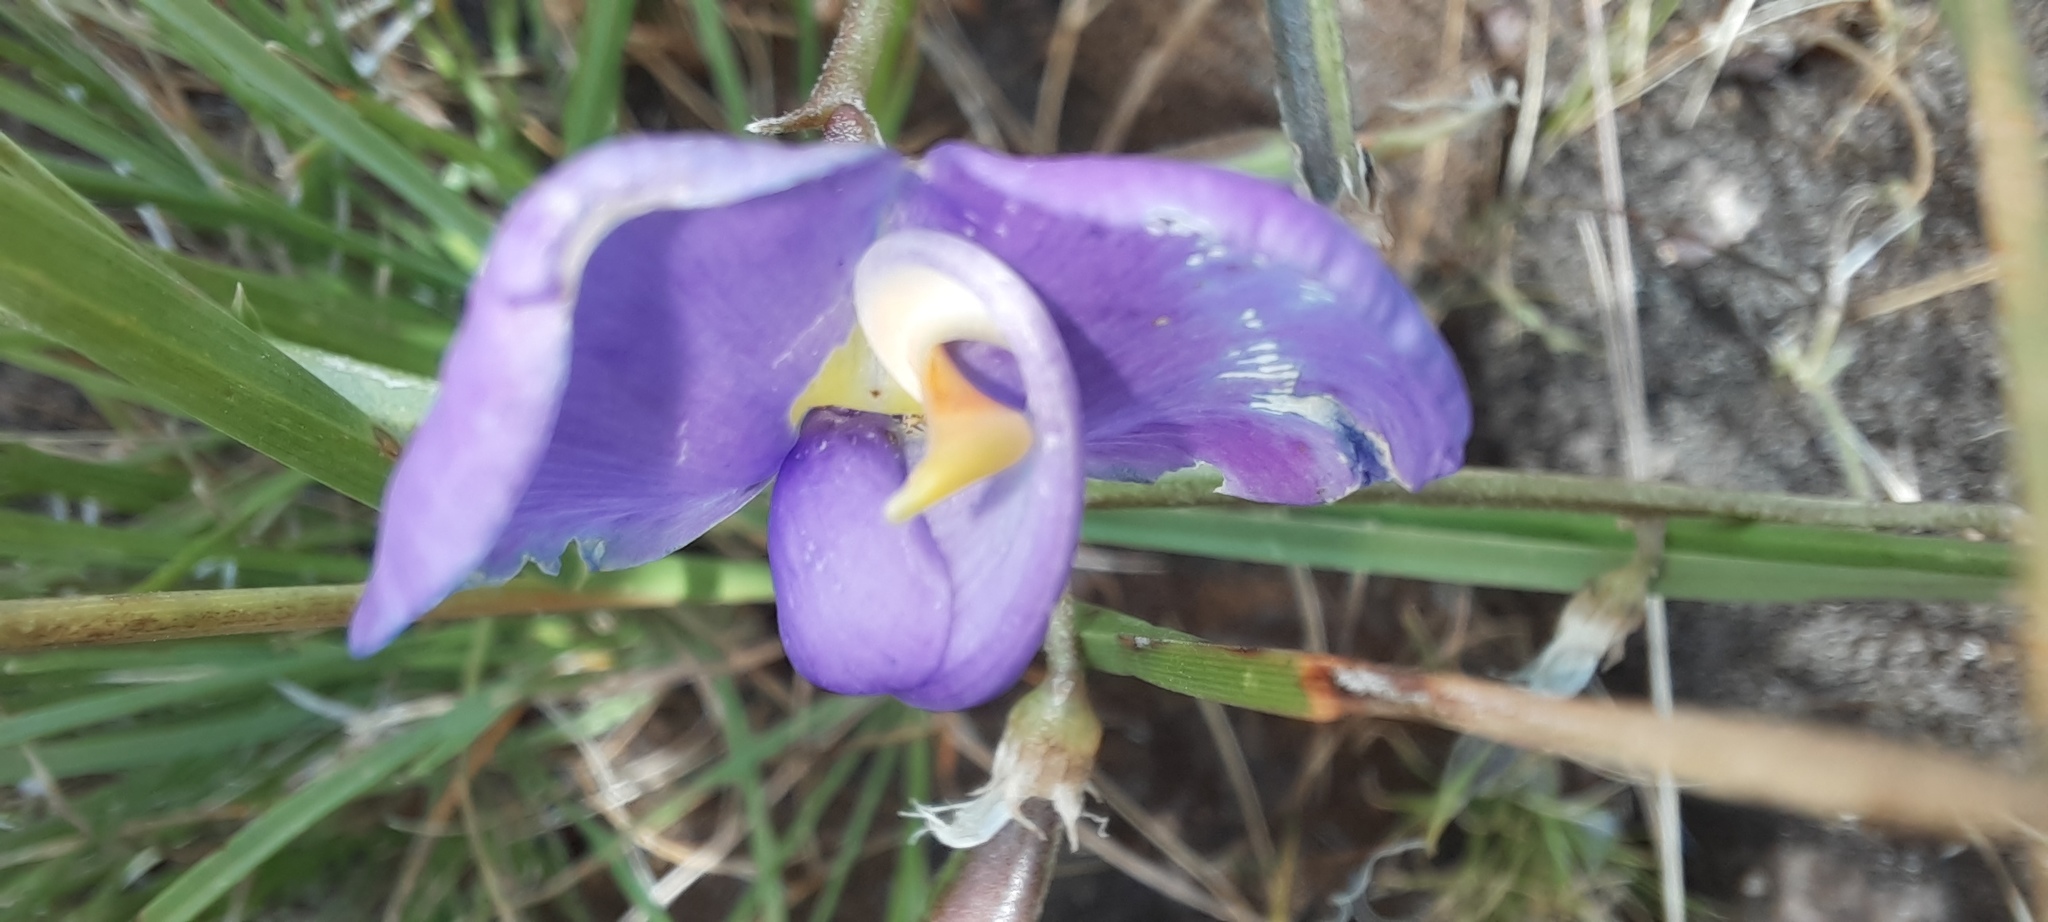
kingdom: Plantae
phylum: Tracheophyta
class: Magnoliopsida
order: Fabales
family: Fabaceae
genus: Swainsona
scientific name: Swainsona procumbens
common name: Broughton-pea
